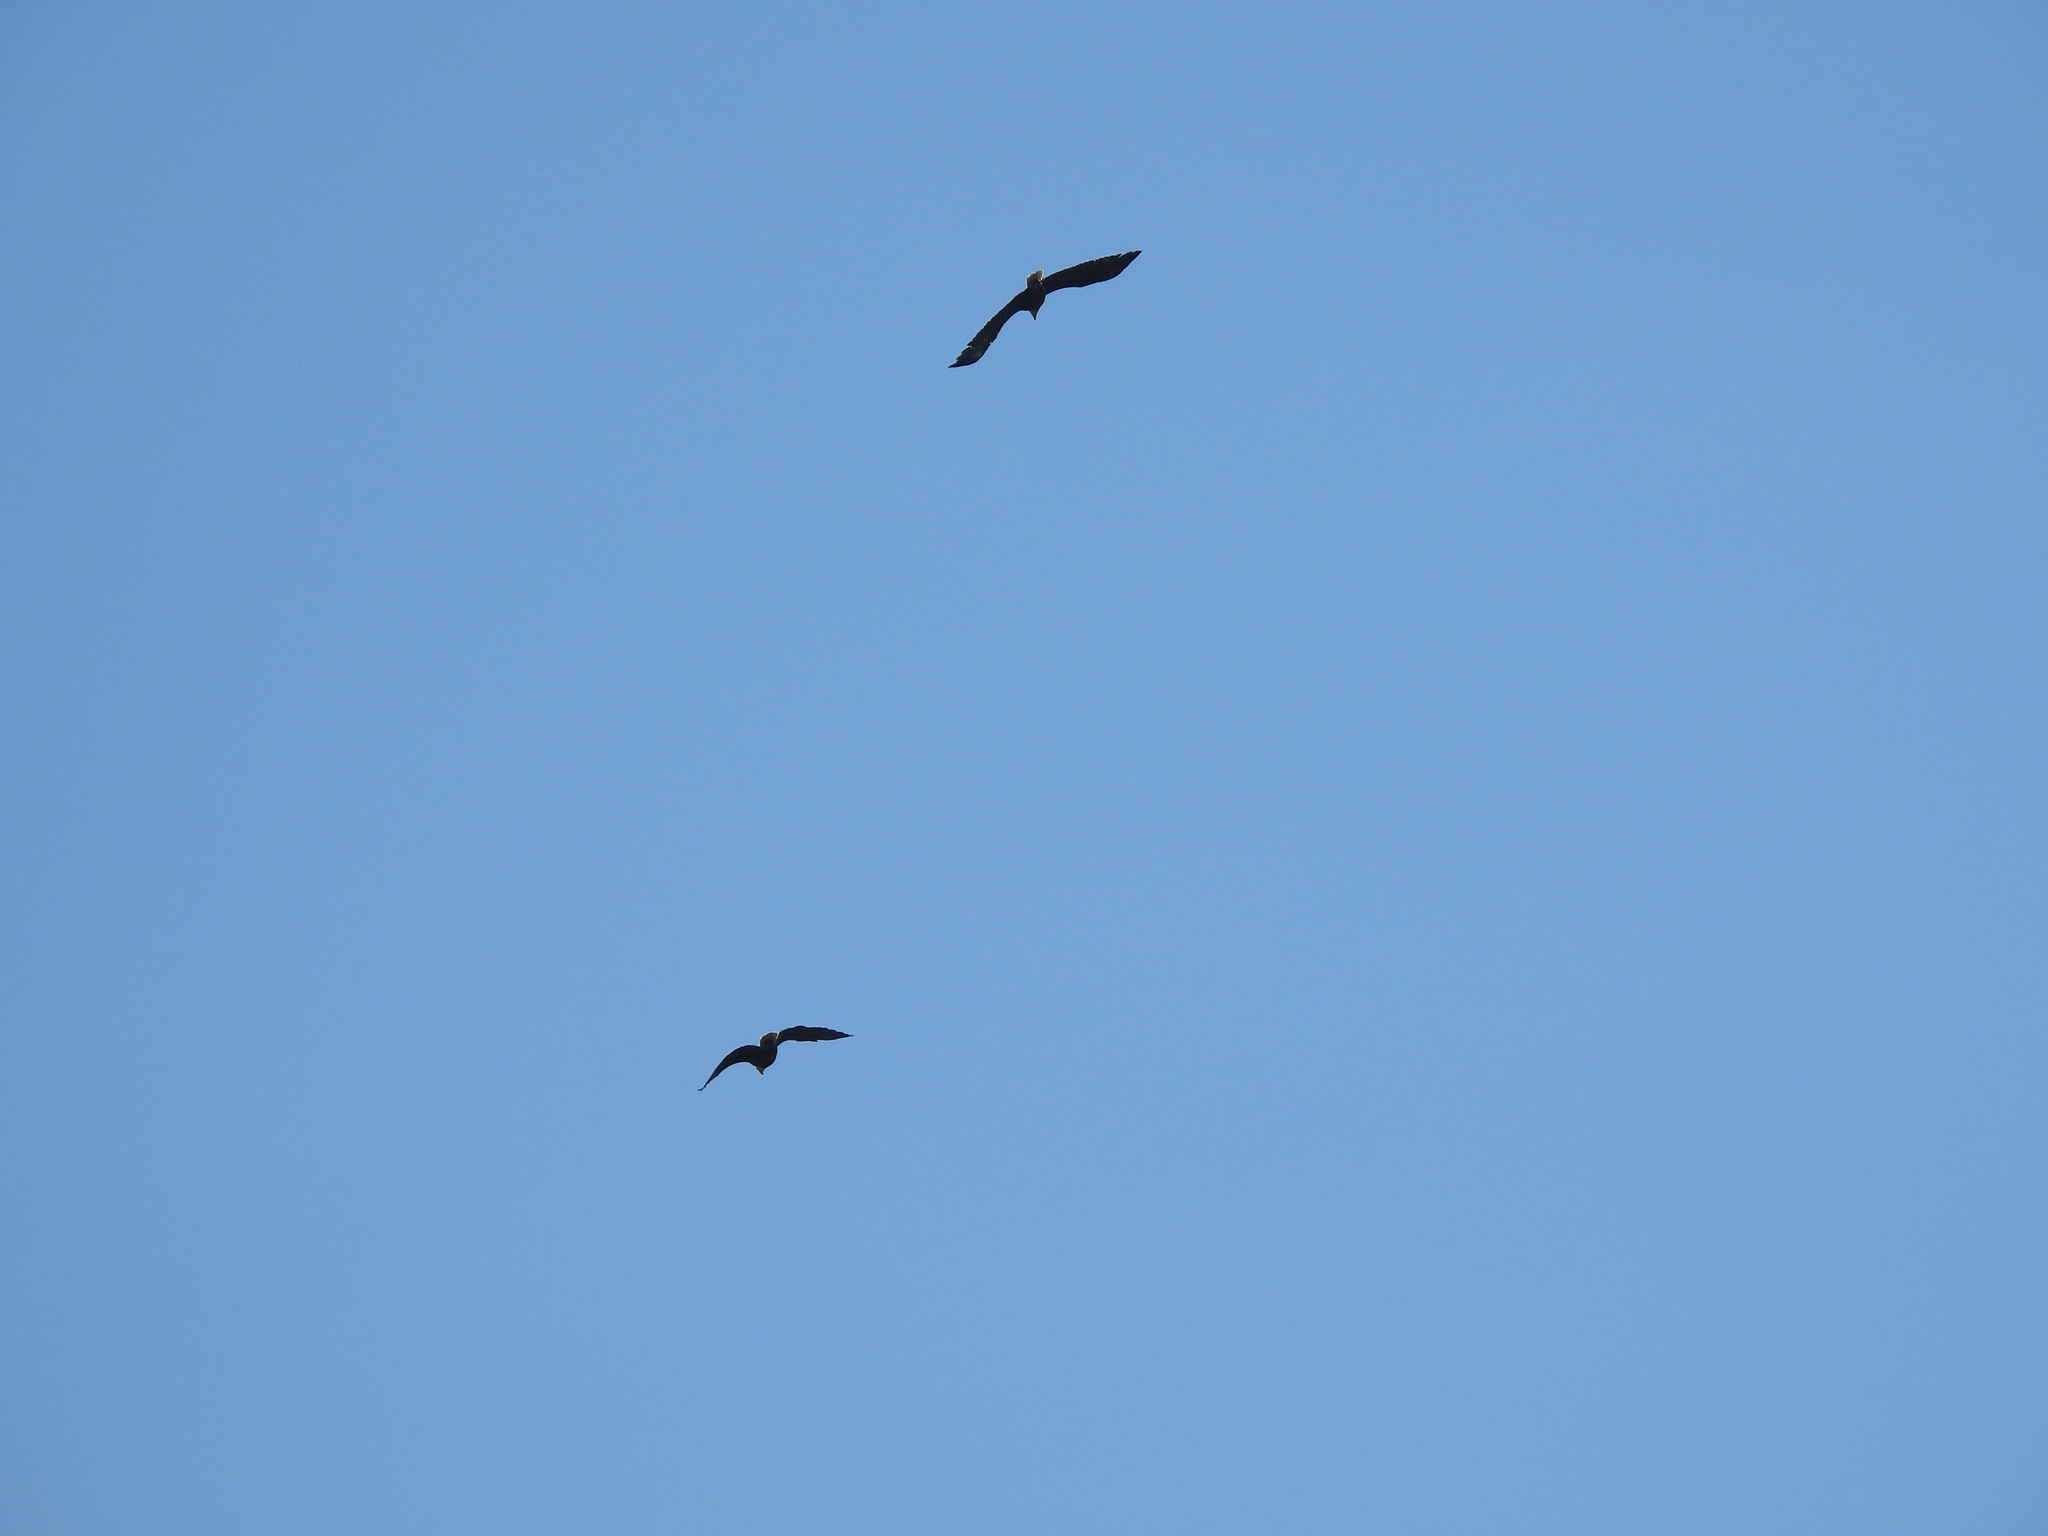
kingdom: Animalia
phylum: Chordata
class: Aves
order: Accipitriformes
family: Accipitridae
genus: Haliaeetus
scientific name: Haliaeetus leucocephalus
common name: Bald eagle
